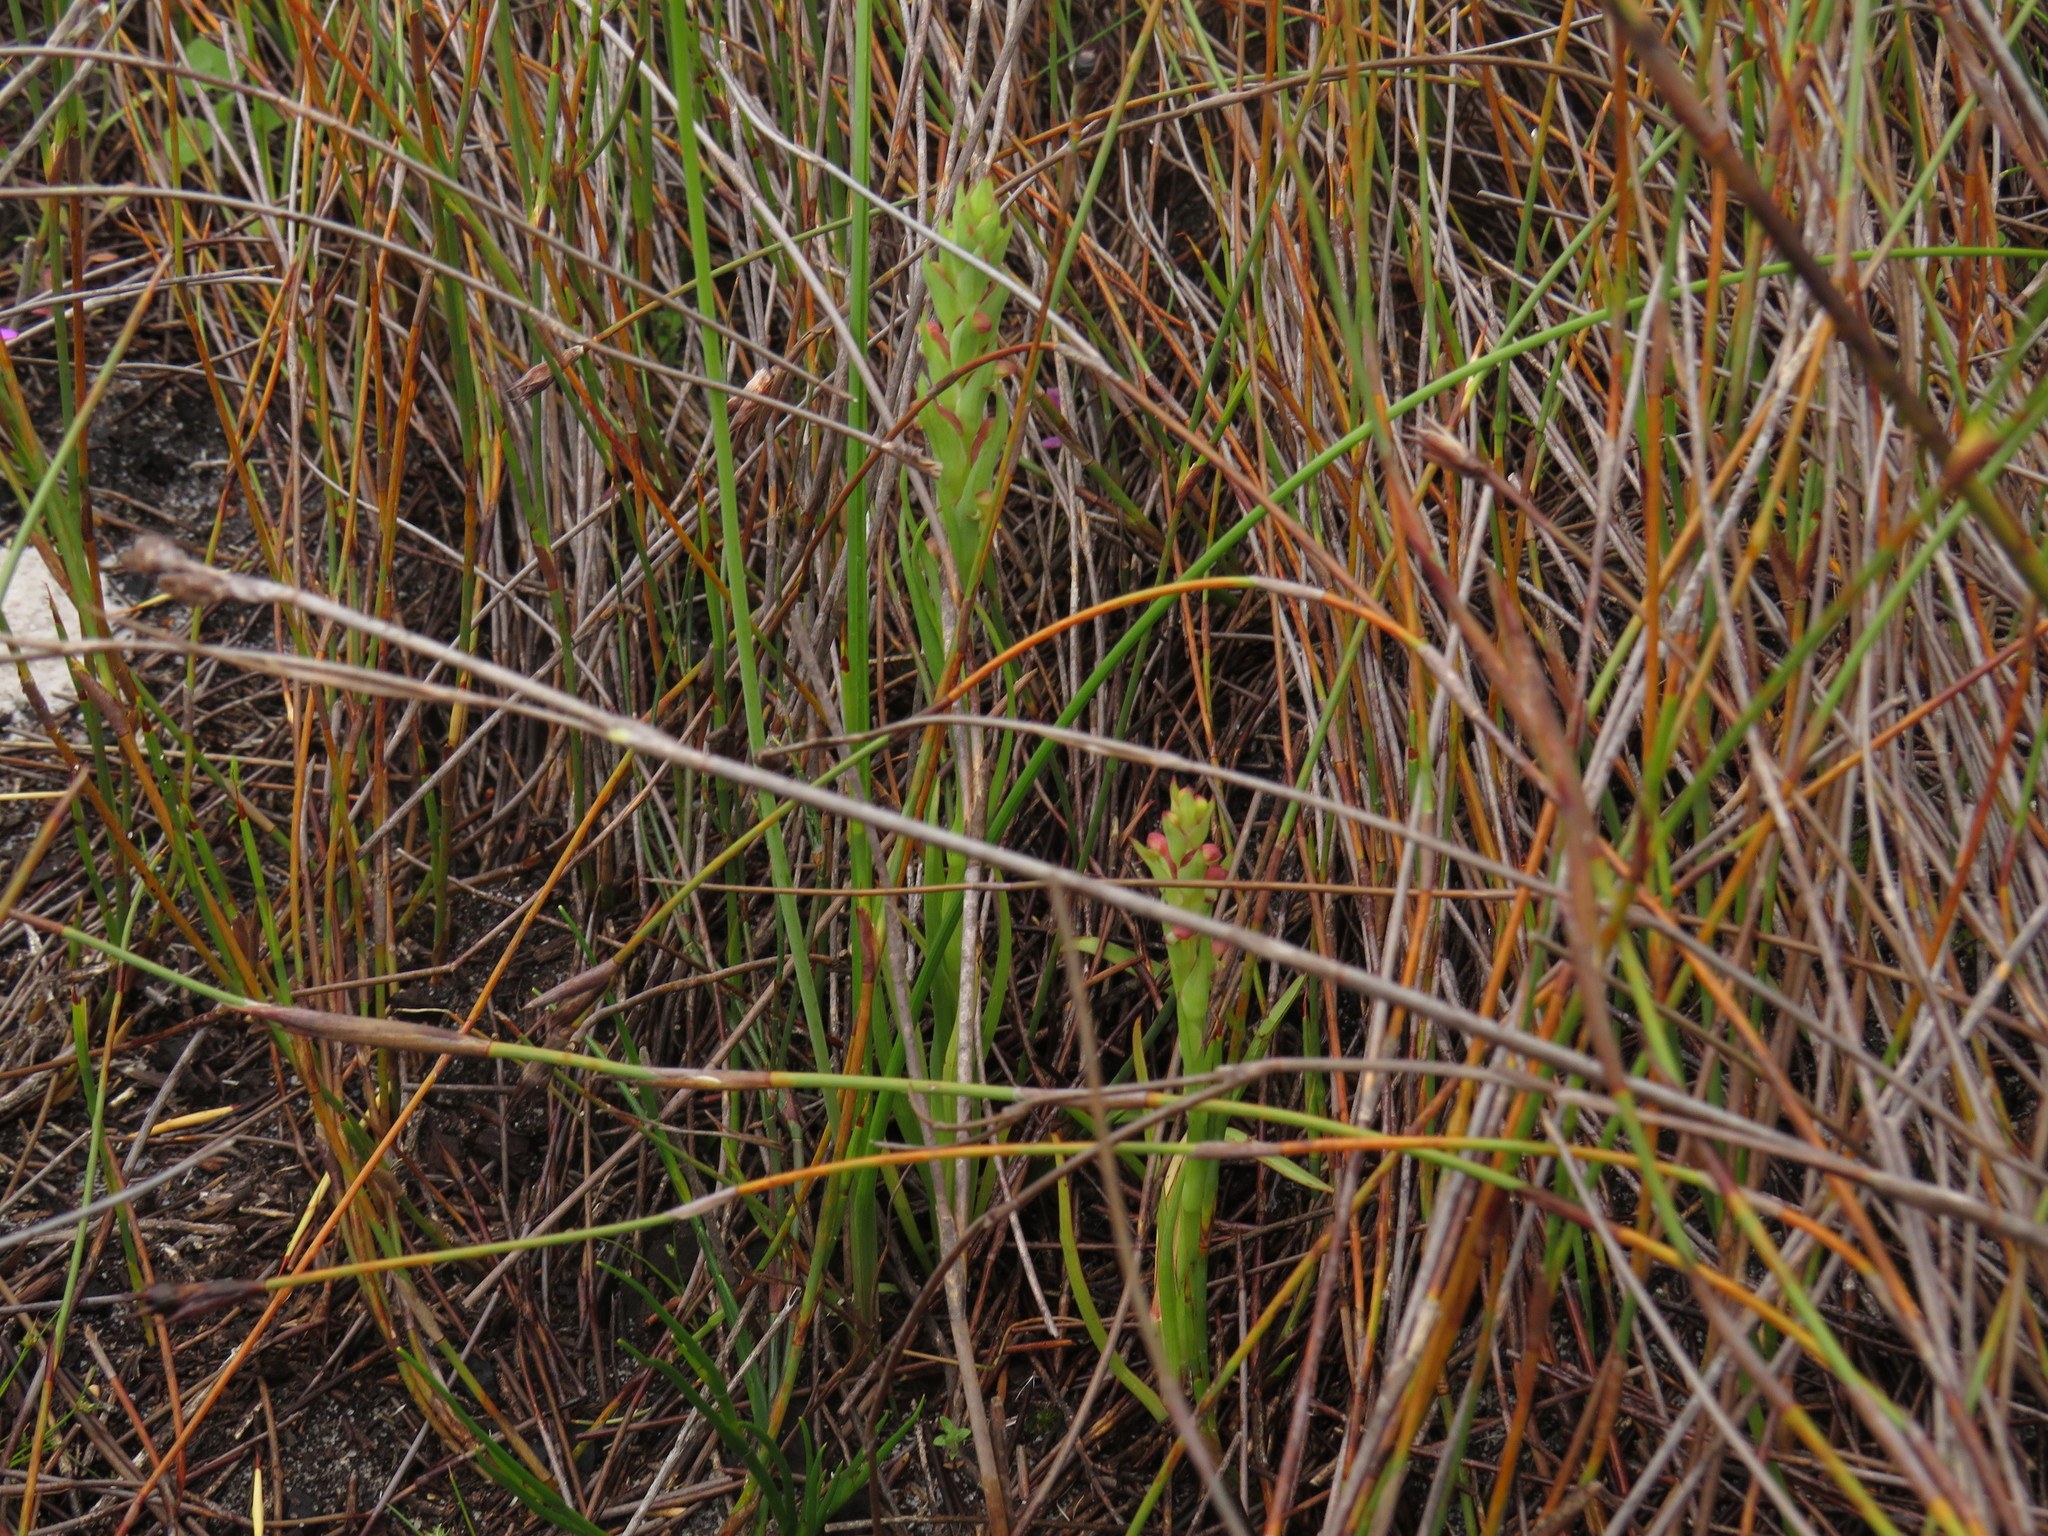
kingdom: Plantae
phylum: Tracheophyta
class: Liliopsida
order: Asparagales
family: Orchidaceae
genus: Disa
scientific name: Disa bracteata
